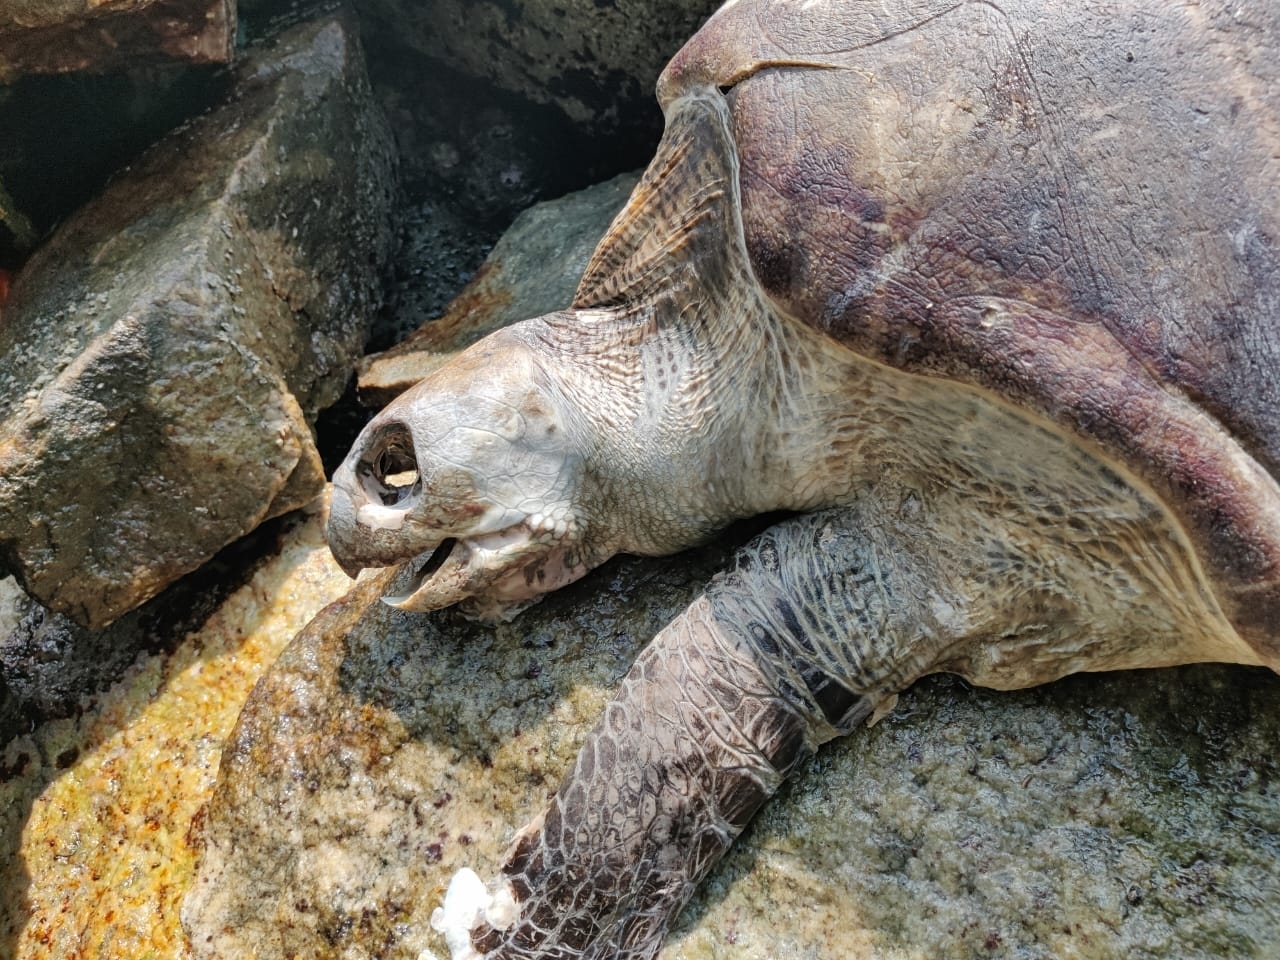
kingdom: Animalia
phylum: Chordata
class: Testudines
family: Cheloniidae
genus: Lepidochelys
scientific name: Lepidochelys olivacea
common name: Olive ridley
